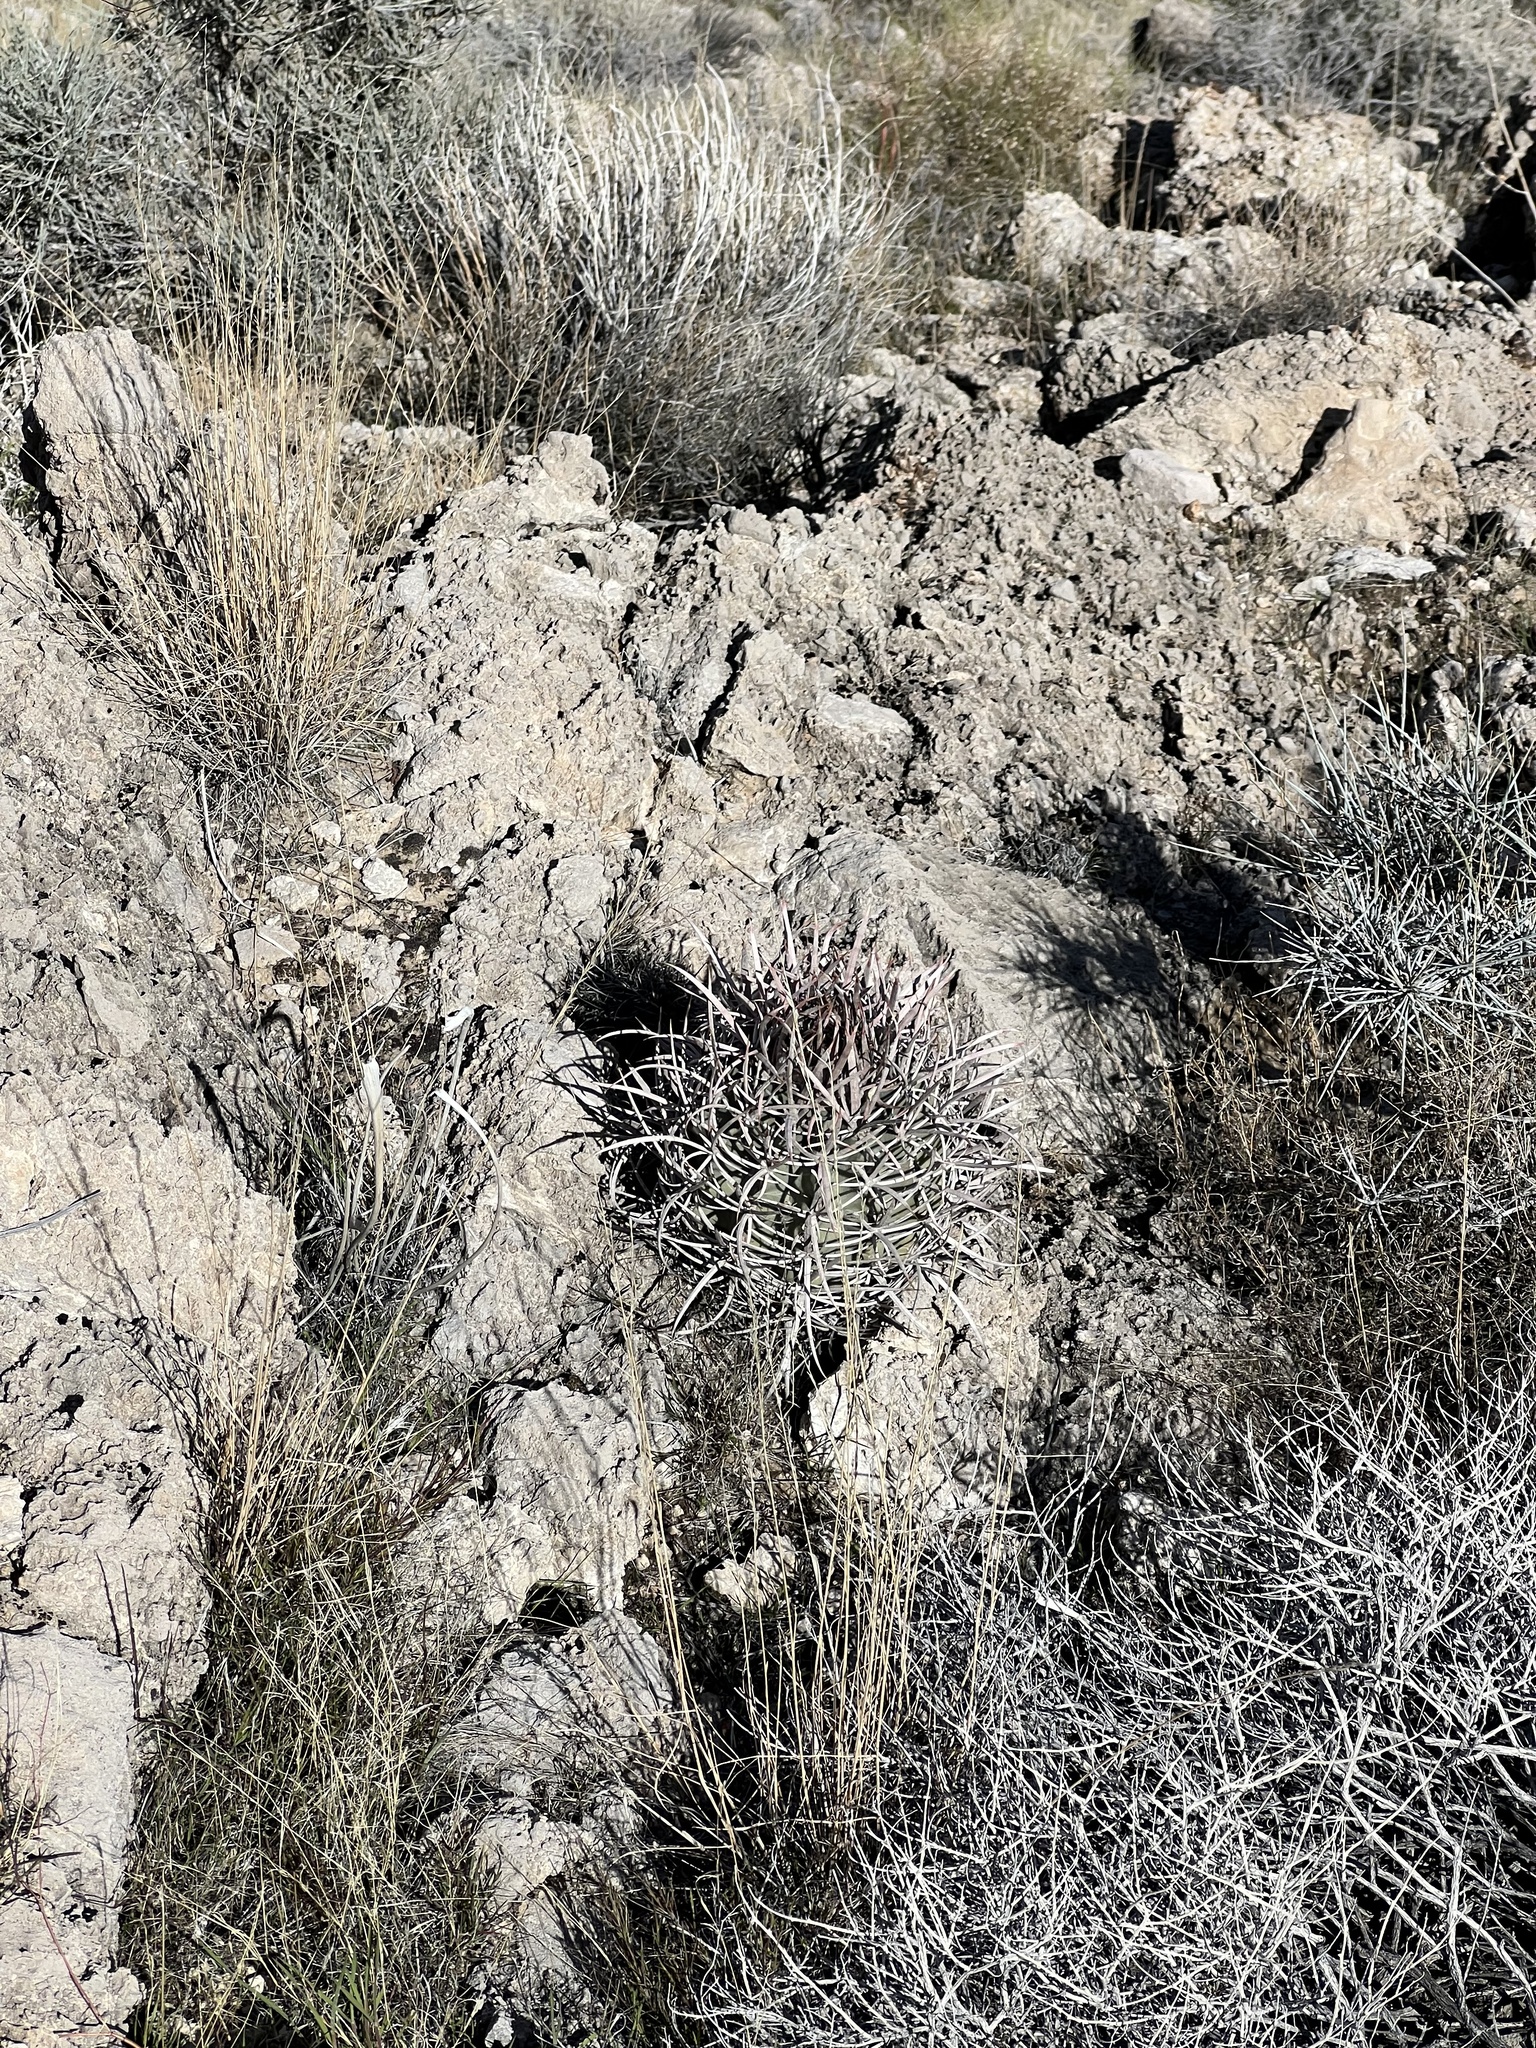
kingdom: Plantae
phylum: Tracheophyta
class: Magnoliopsida
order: Caryophyllales
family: Cactaceae
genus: Echinocactus
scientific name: Echinocactus polycephalus
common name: Cottontop cactus
